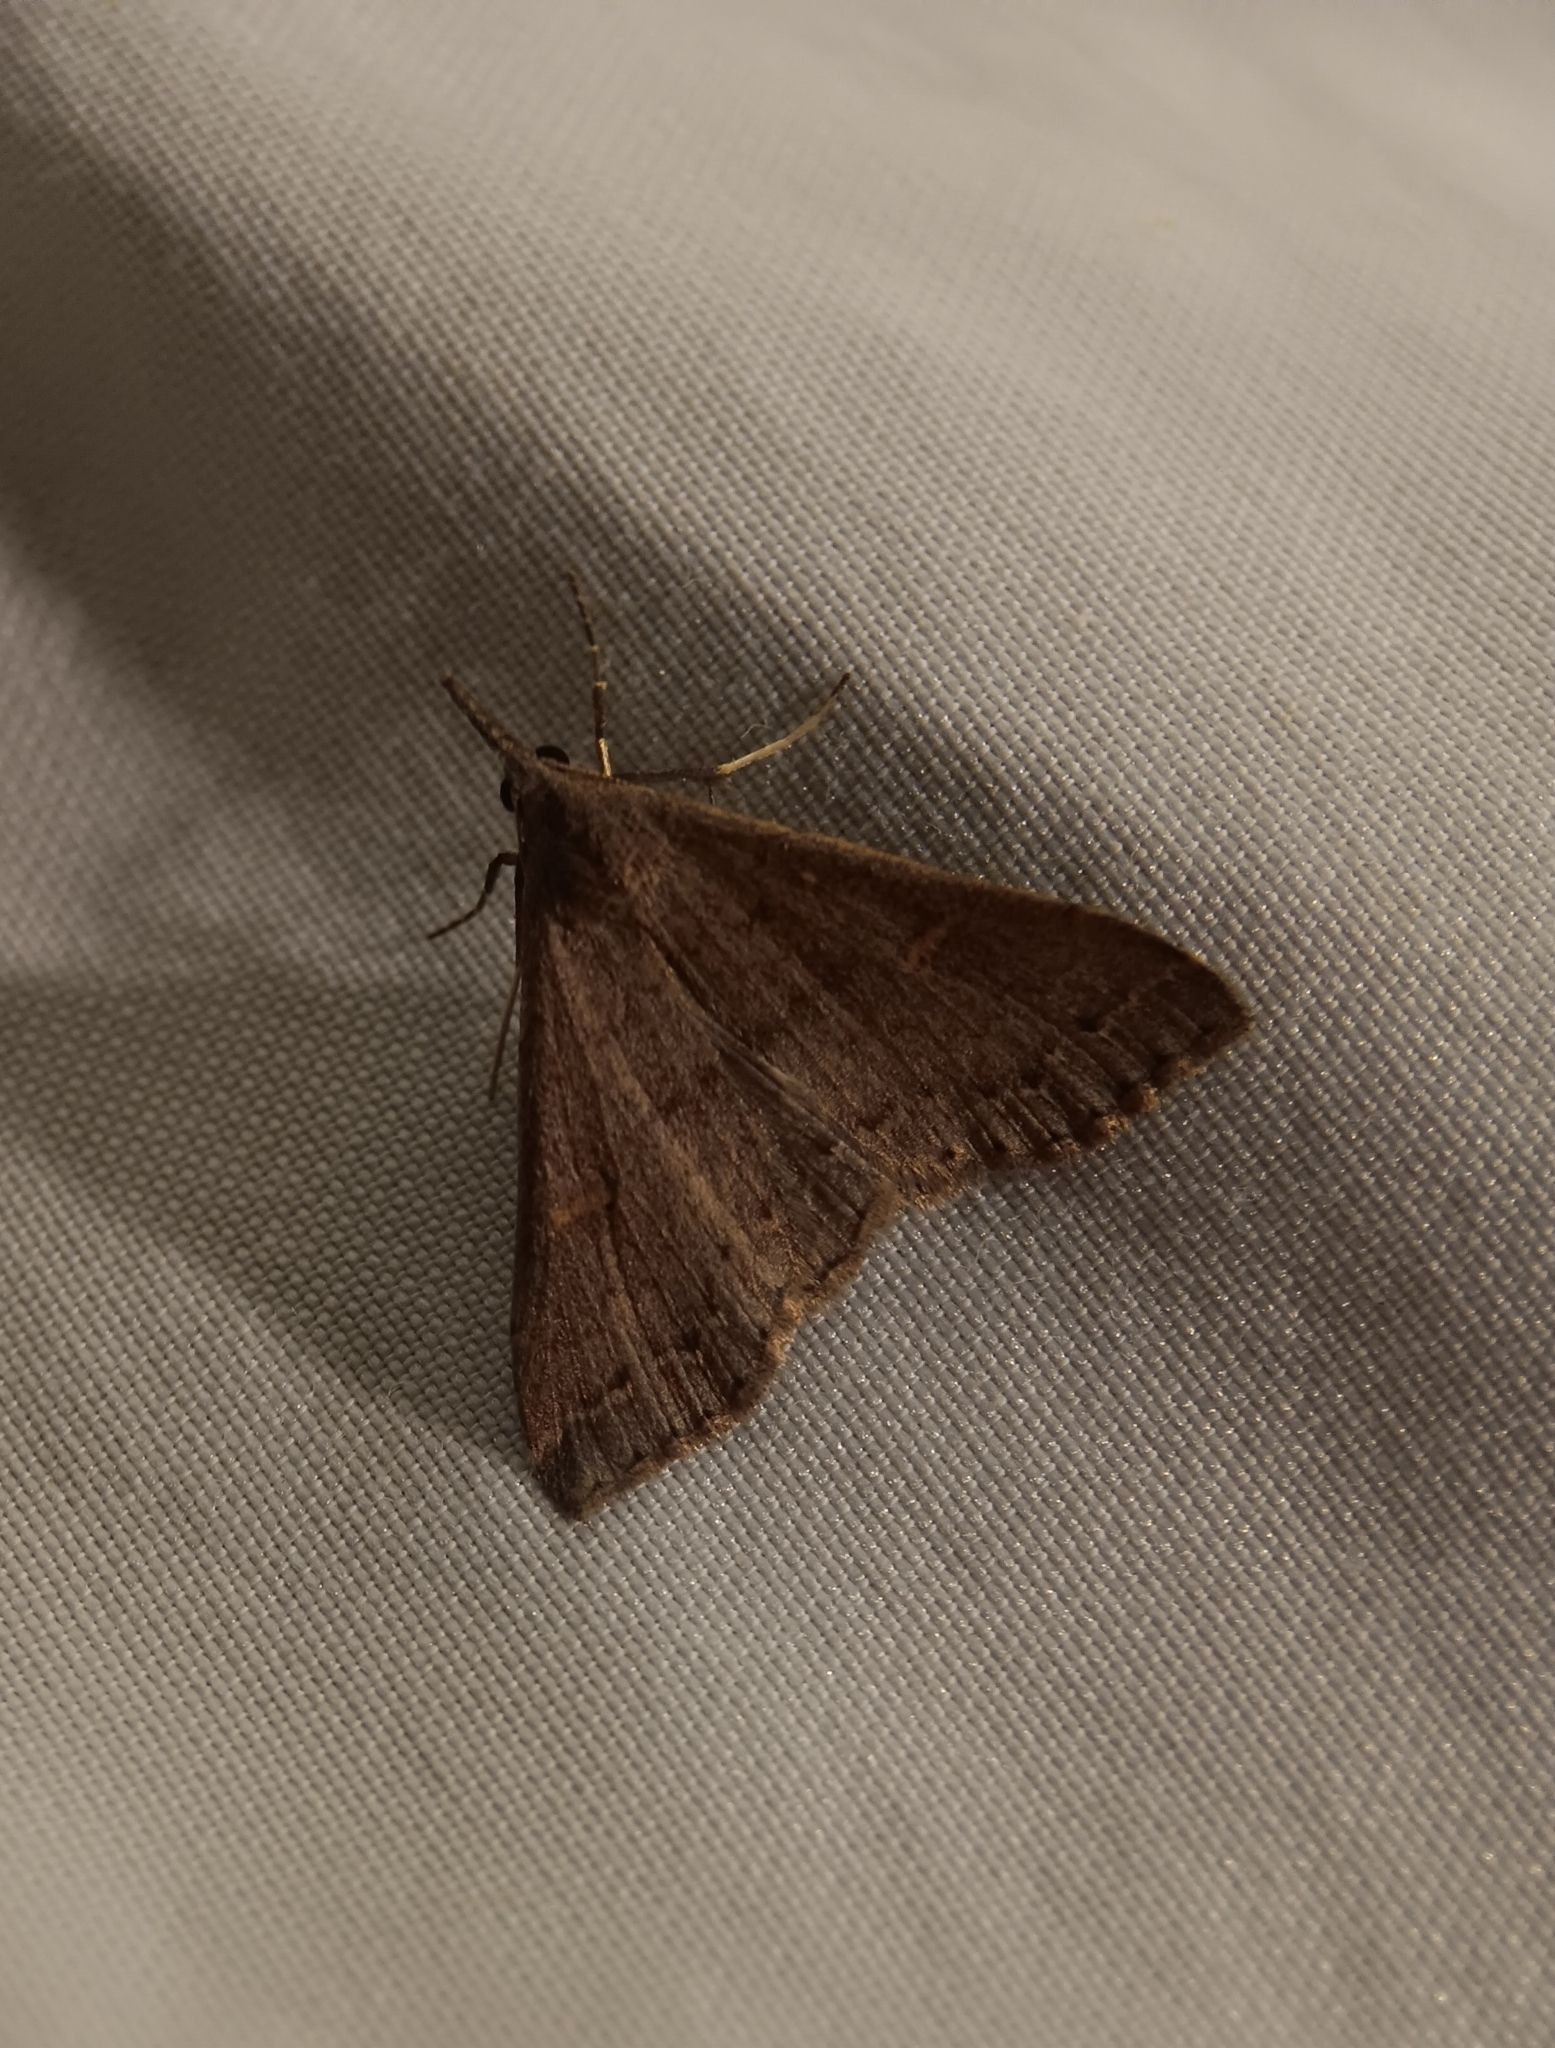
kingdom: Animalia
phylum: Arthropoda
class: Insecta
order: Lepidoptera
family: Erebidae
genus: Renia
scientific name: Renia adspergillus
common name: Speckled renia moth
